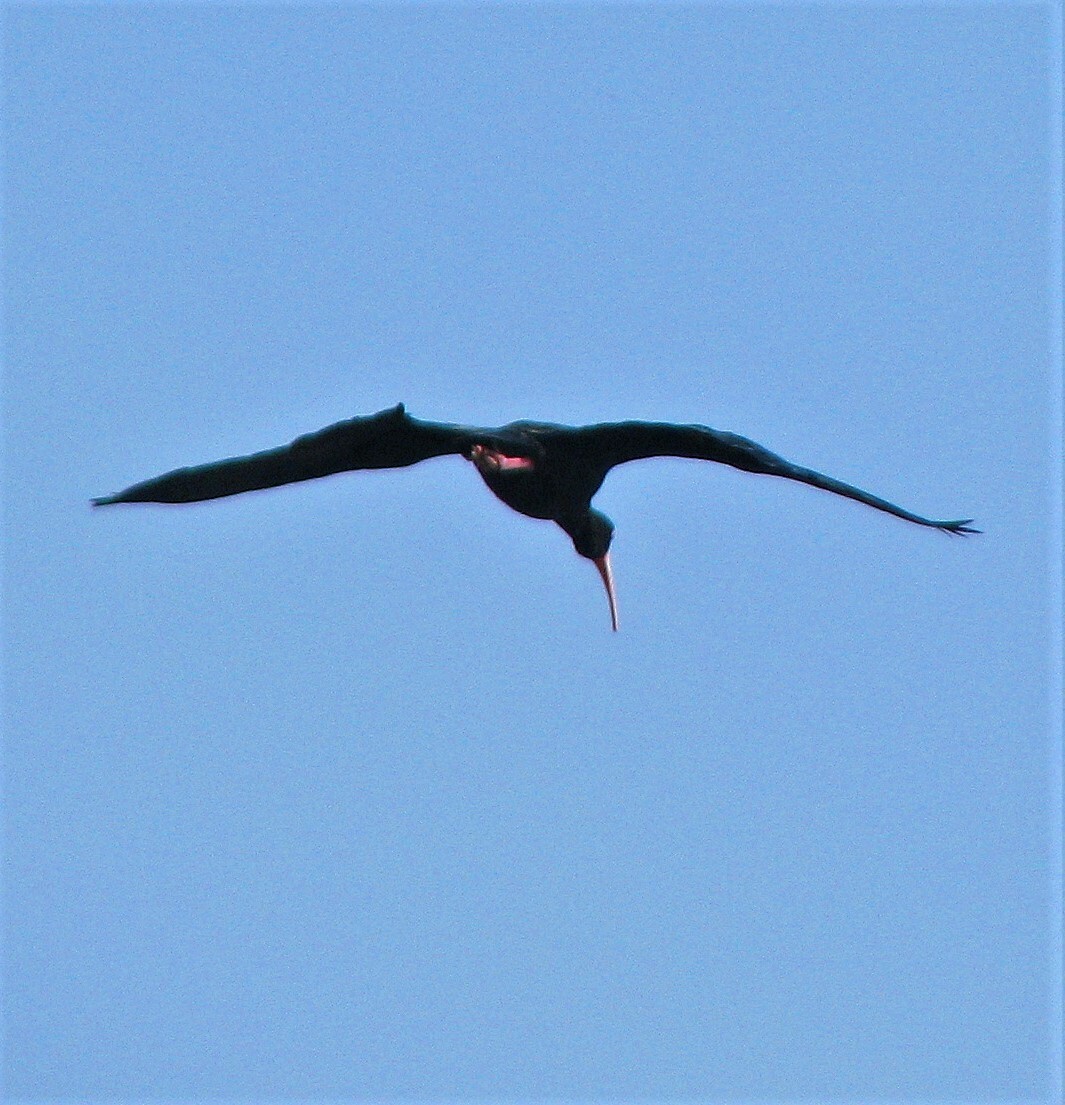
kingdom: Animalia
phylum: Chordata
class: Aves
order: Pelecaniformes
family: Threskiornithidae
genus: Phimosus
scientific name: Phimosus infuscatus
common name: Bare-faced ibis
